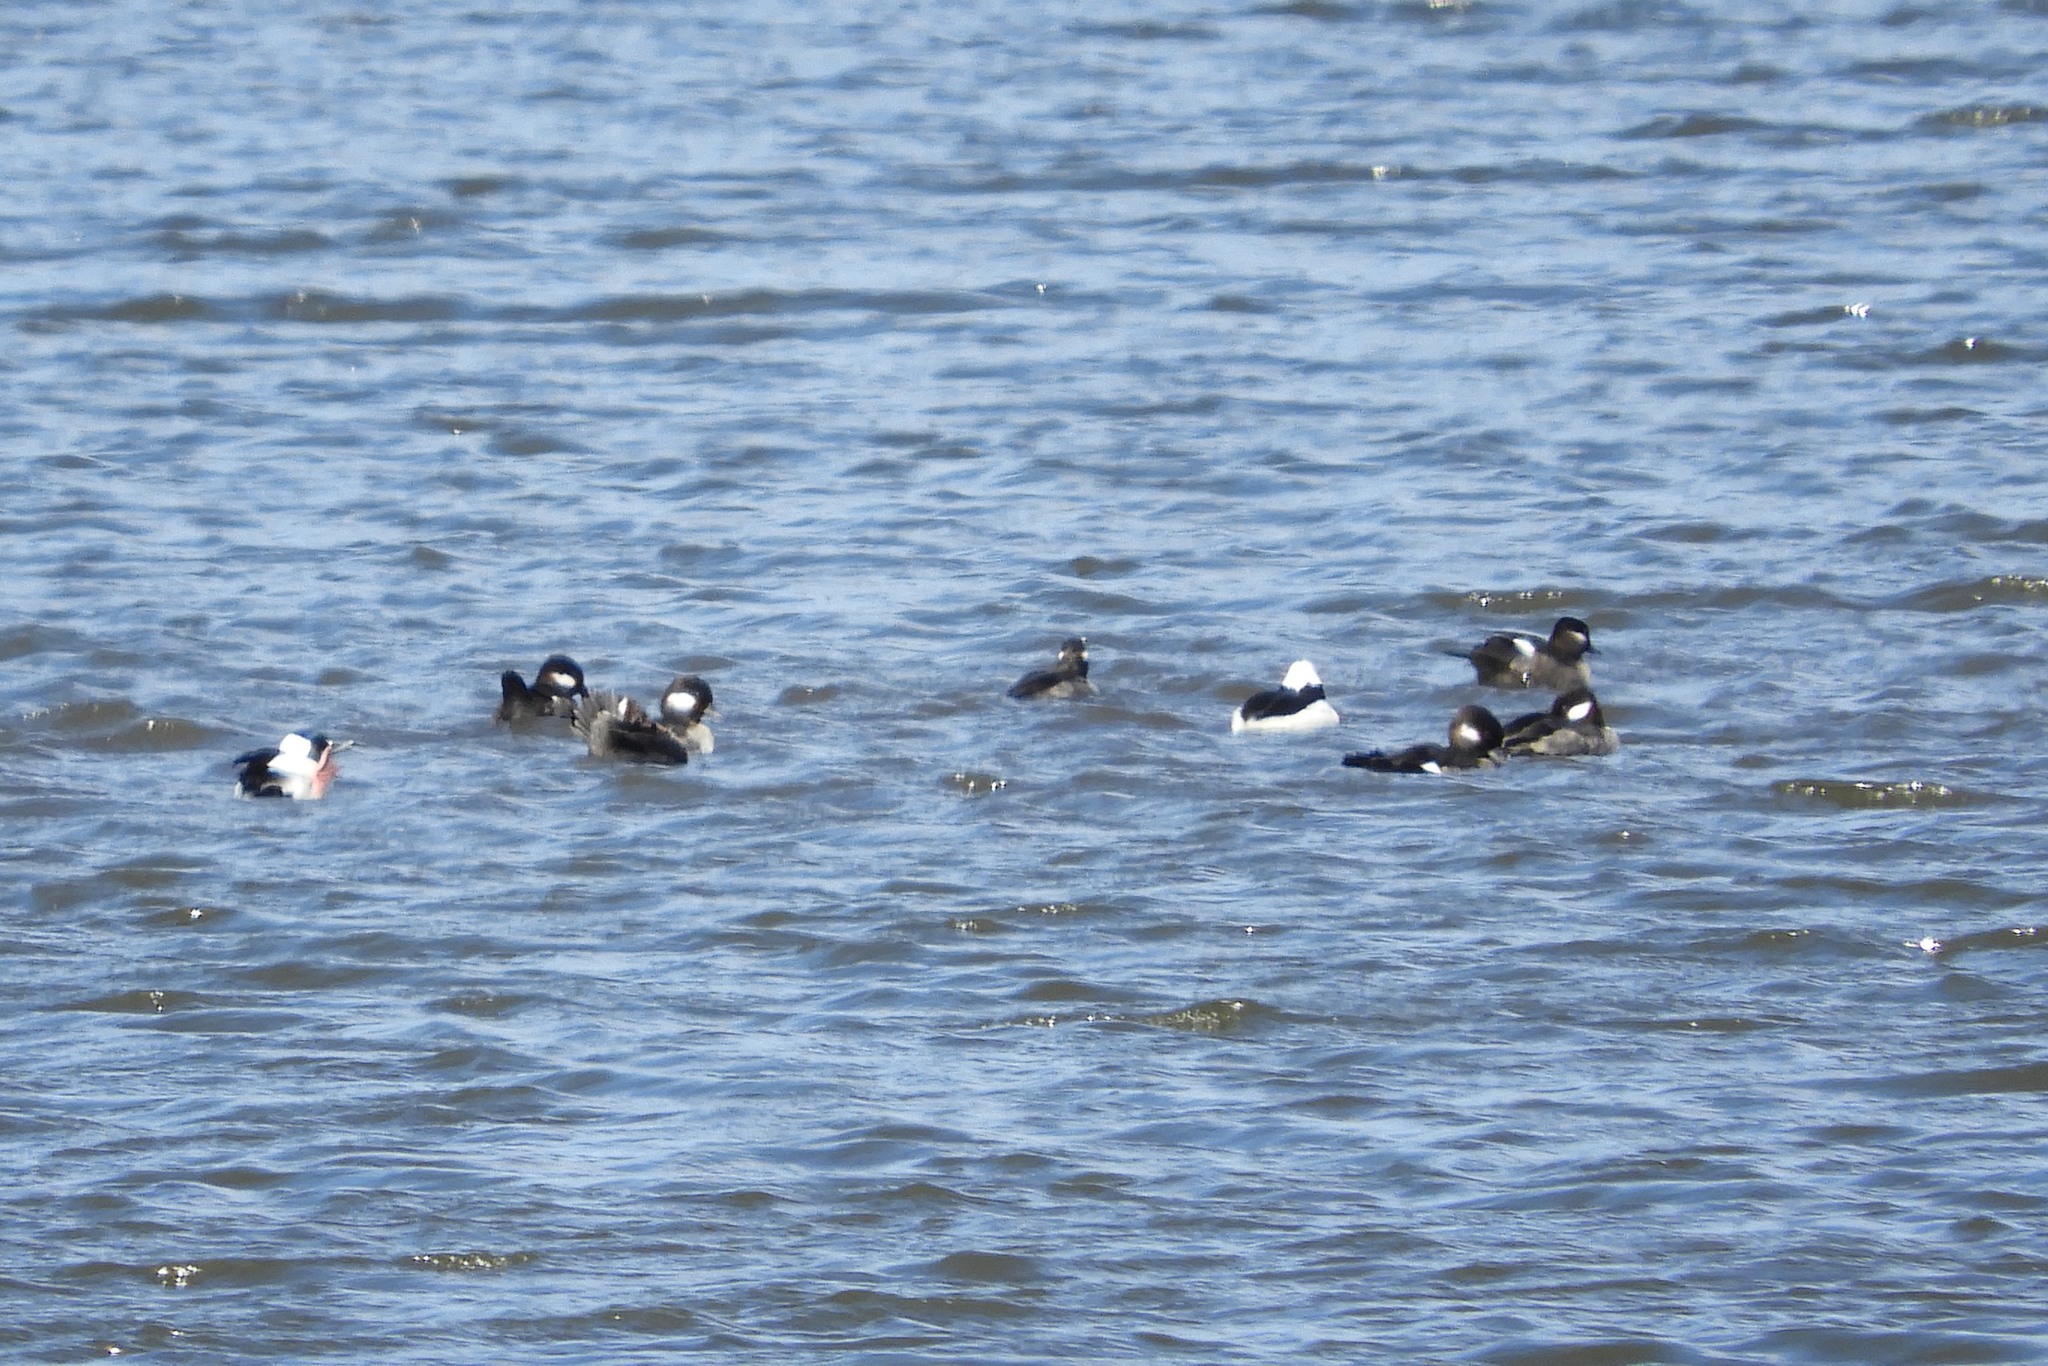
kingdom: Animalia
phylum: Chordata
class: Aves
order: Anseriformes
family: Anatidae
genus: Bucephala
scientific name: Bucephala albeola
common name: Bufflehead
